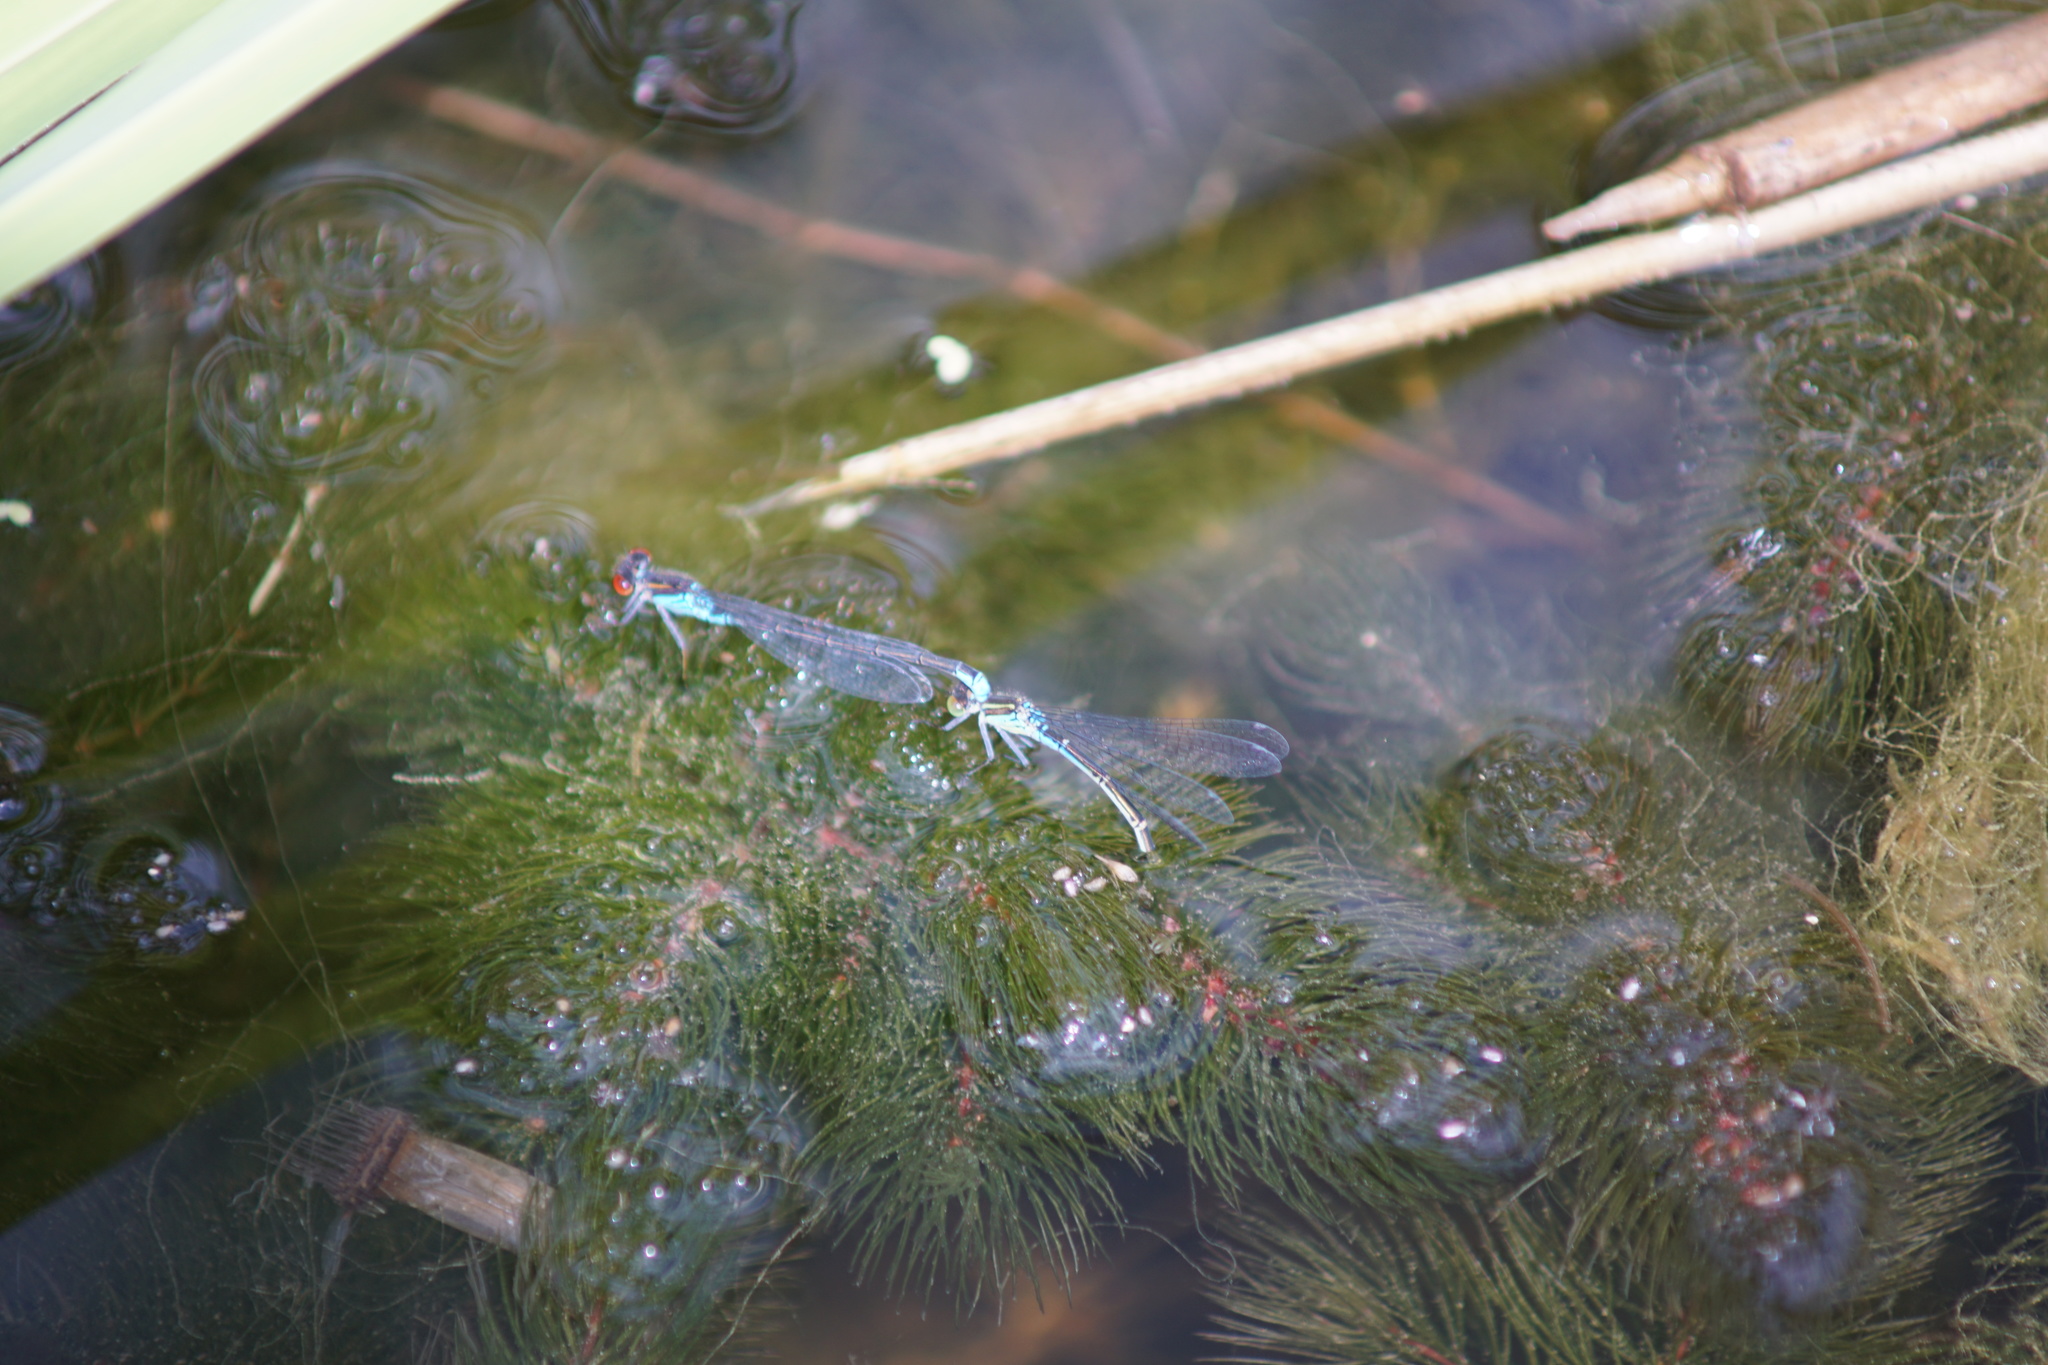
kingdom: Animalia
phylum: Arthropoda
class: Insecta
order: Odonata
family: Coenagrionidae
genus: Erythromma
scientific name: Erythromma viridulum
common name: Small red-eyed damselfly
